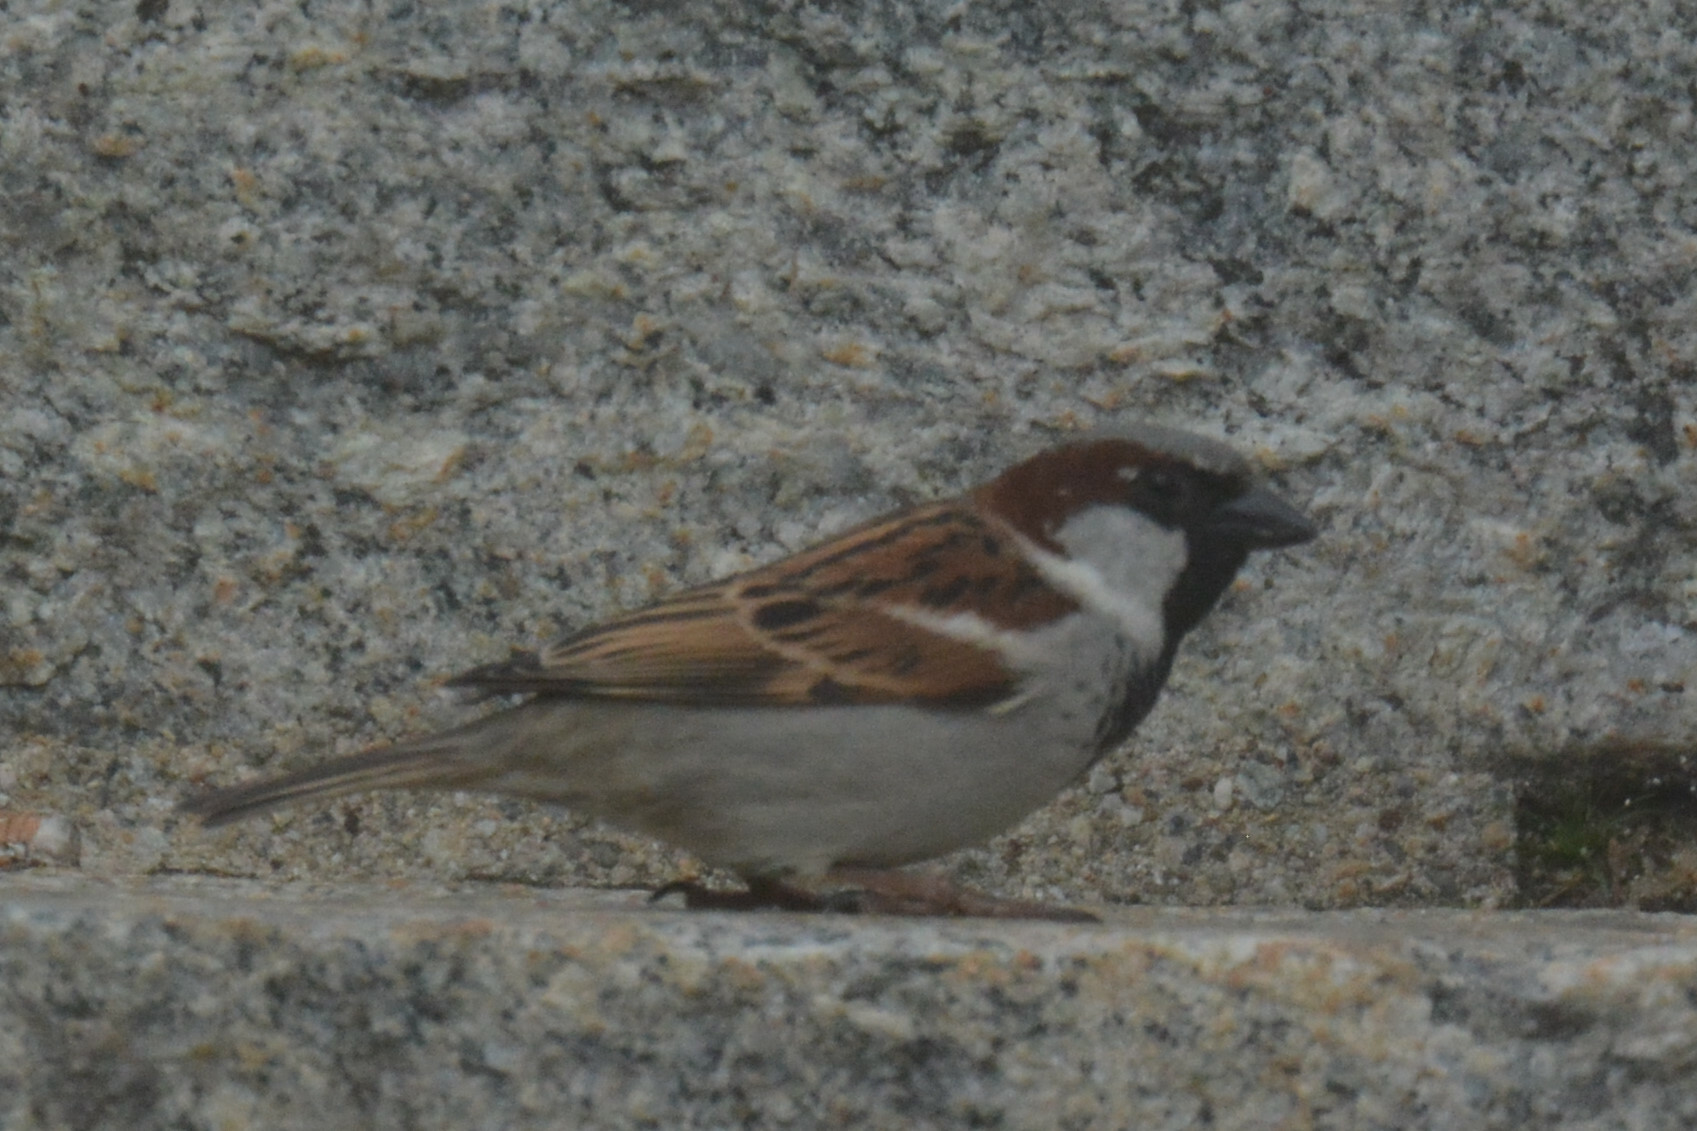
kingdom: Animalia
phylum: Chordata
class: Aves
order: Passeriformes
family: Passeridae
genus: Passer
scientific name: Passer domesticus
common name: House sparrow
